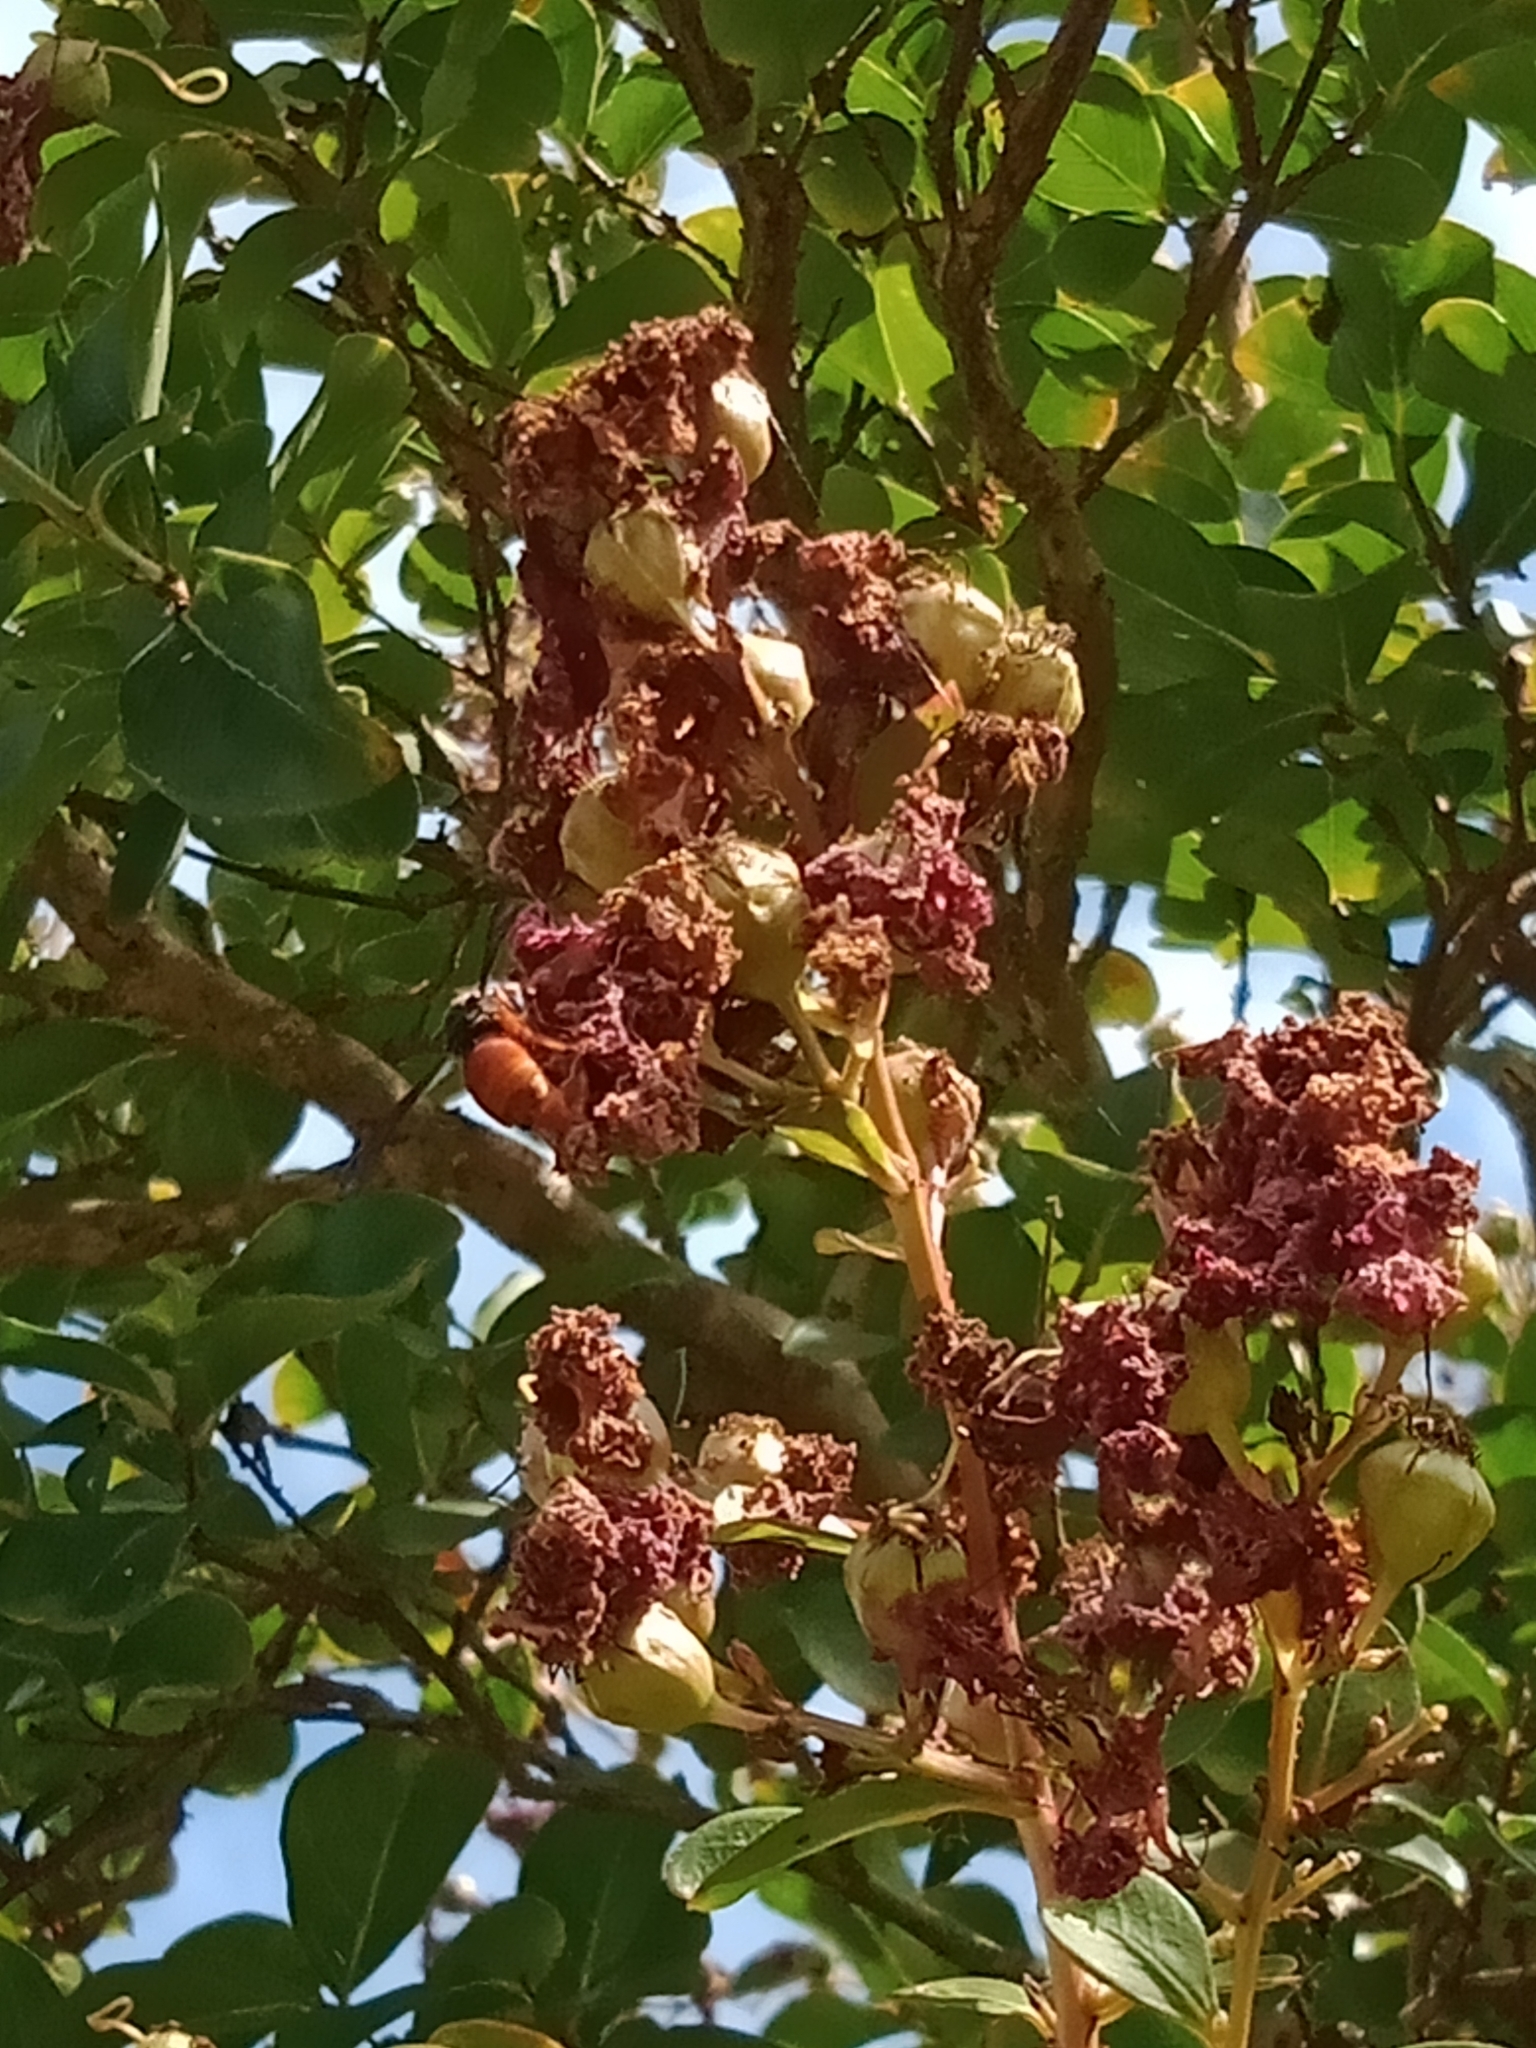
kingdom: Animalia
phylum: Arthropoda
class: Insecta
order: Hymenoptera
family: Eumenidae
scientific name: Eumenidae
